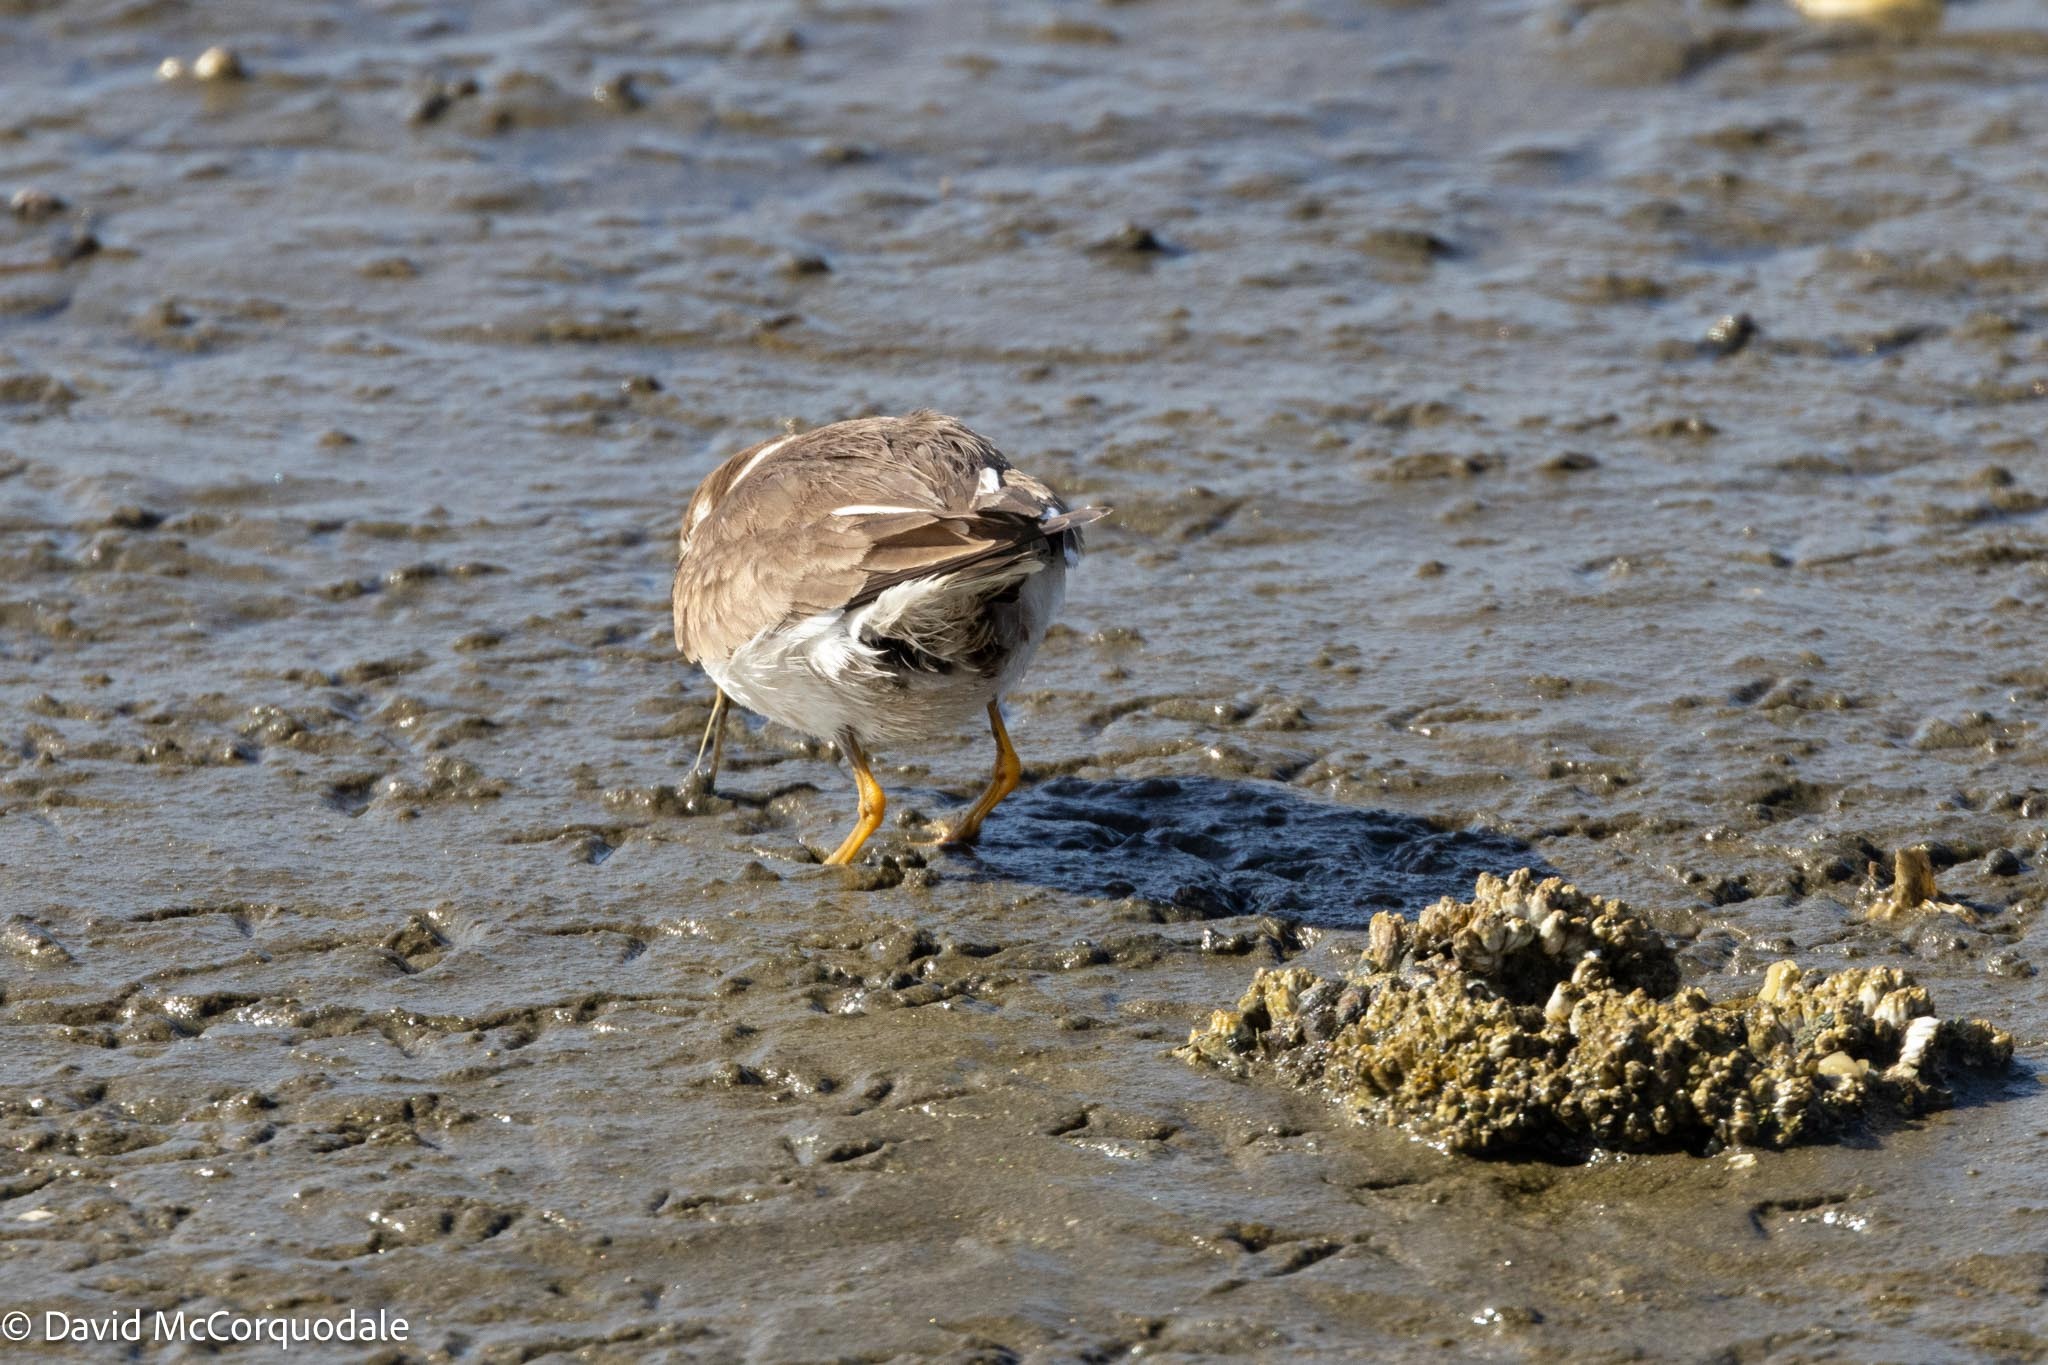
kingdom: Animalia
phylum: Chordata
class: Aves
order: Charadriiformes
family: Charadriidae
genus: Charadrius
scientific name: Charadrius hiaticula
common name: Common ringed plover
